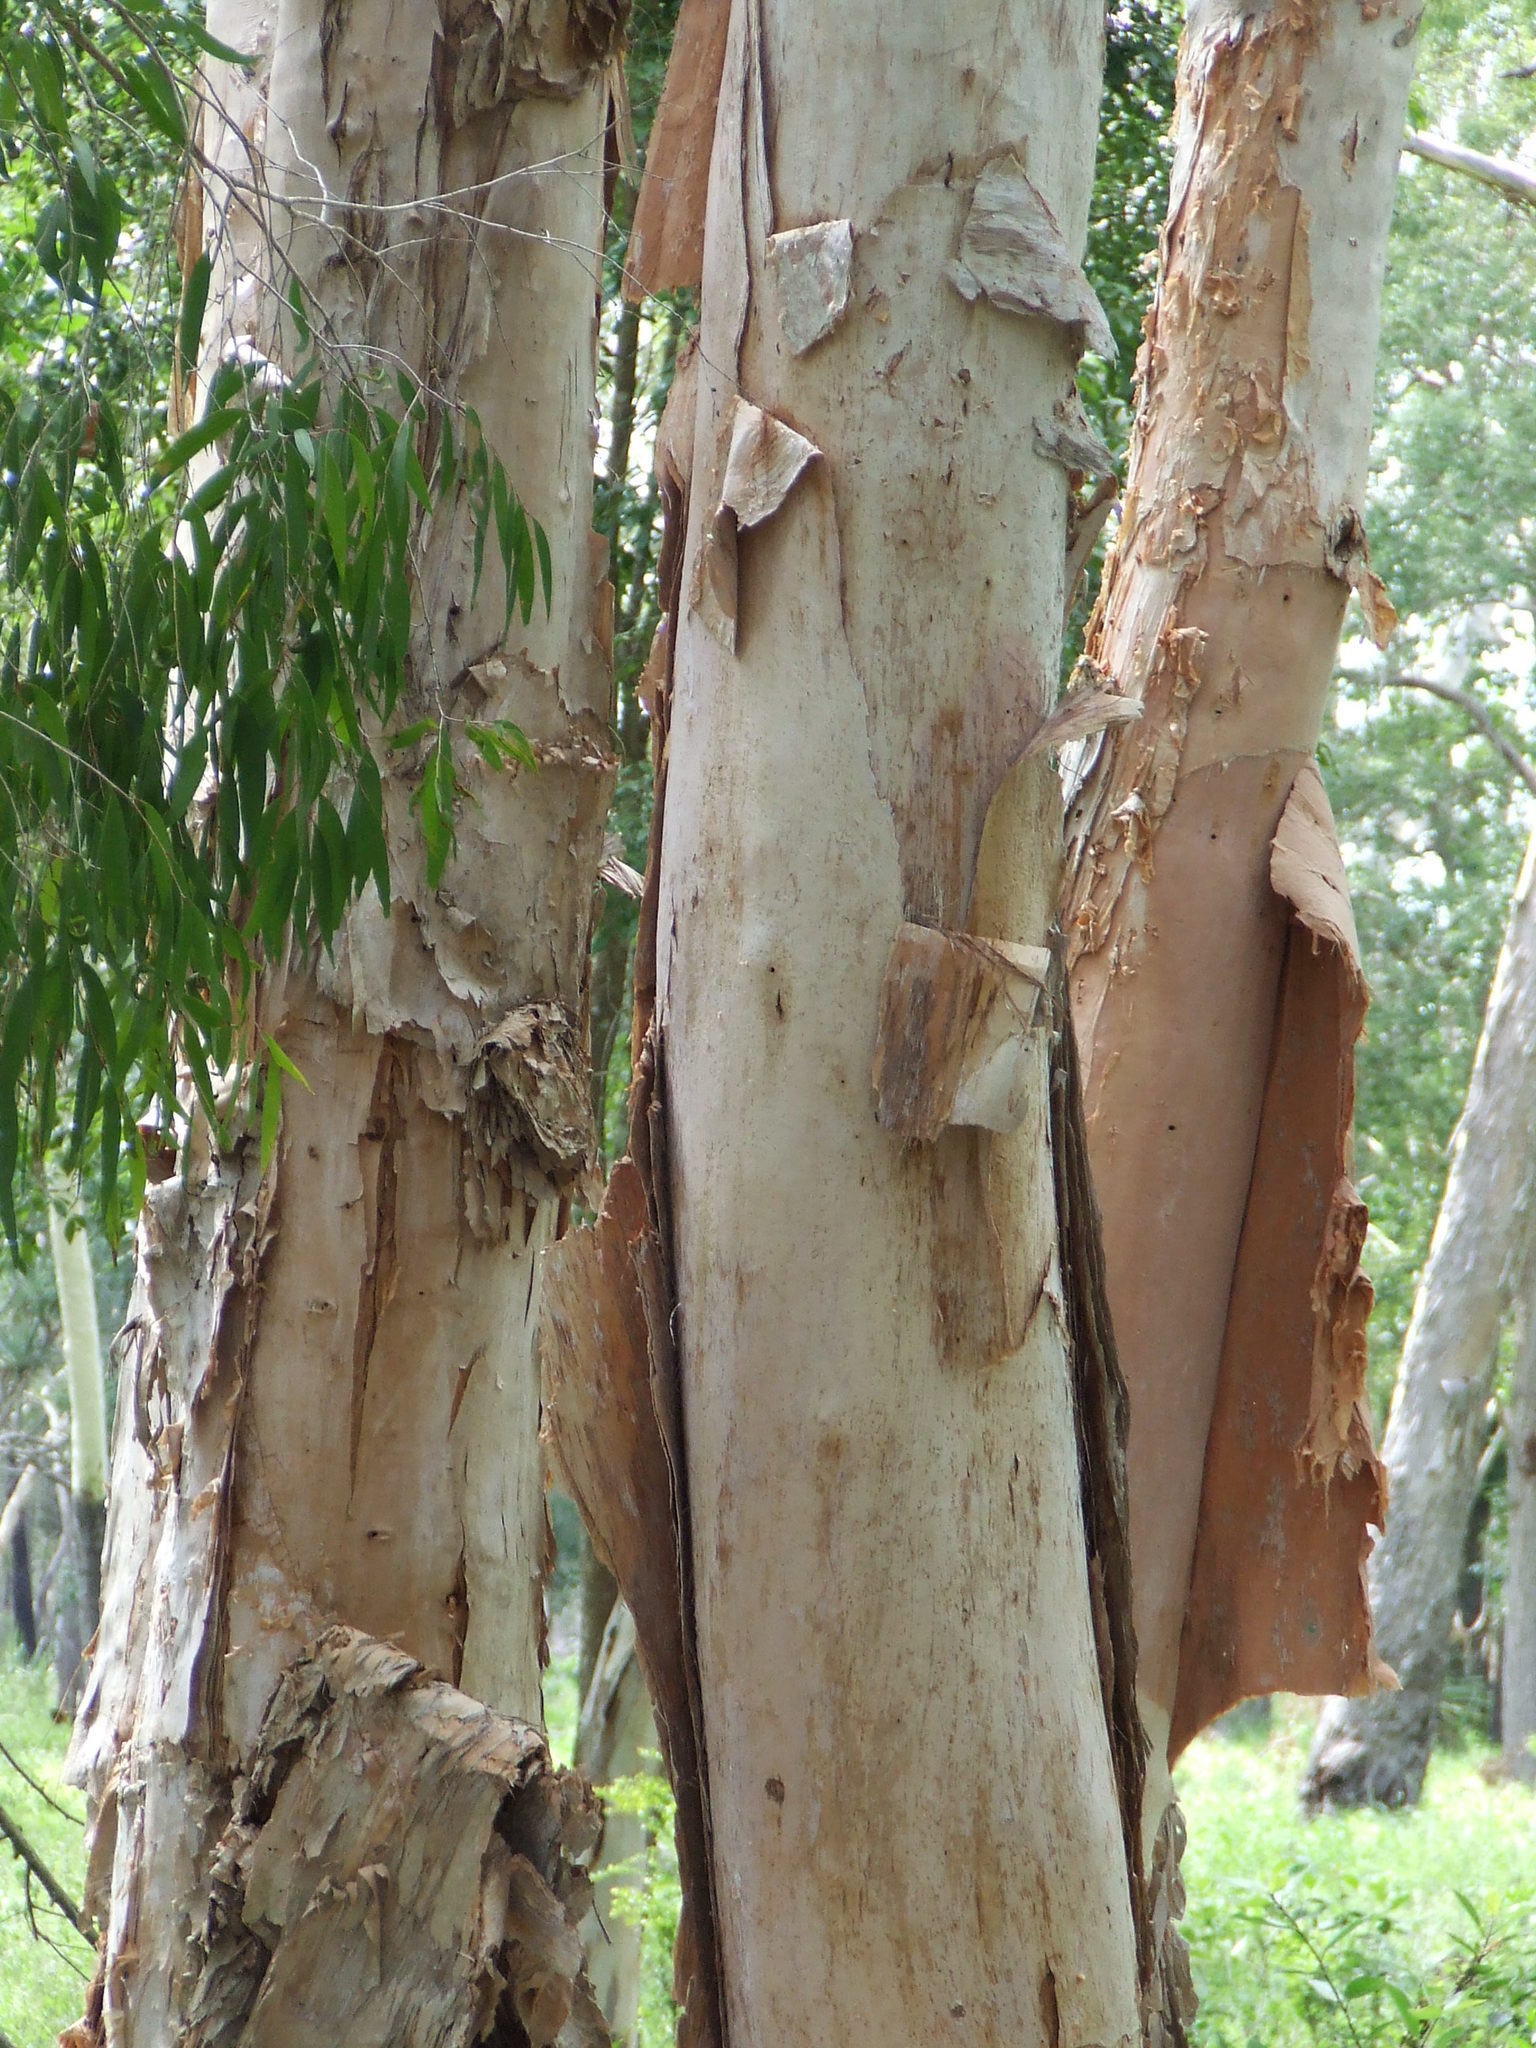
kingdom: Plantae
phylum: Tracheophyta
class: Magnoliopsida
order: Myrtales
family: Myrtaceae
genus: Melaleuca
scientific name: Melaleuca leucadendra
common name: Weeping paperbark
